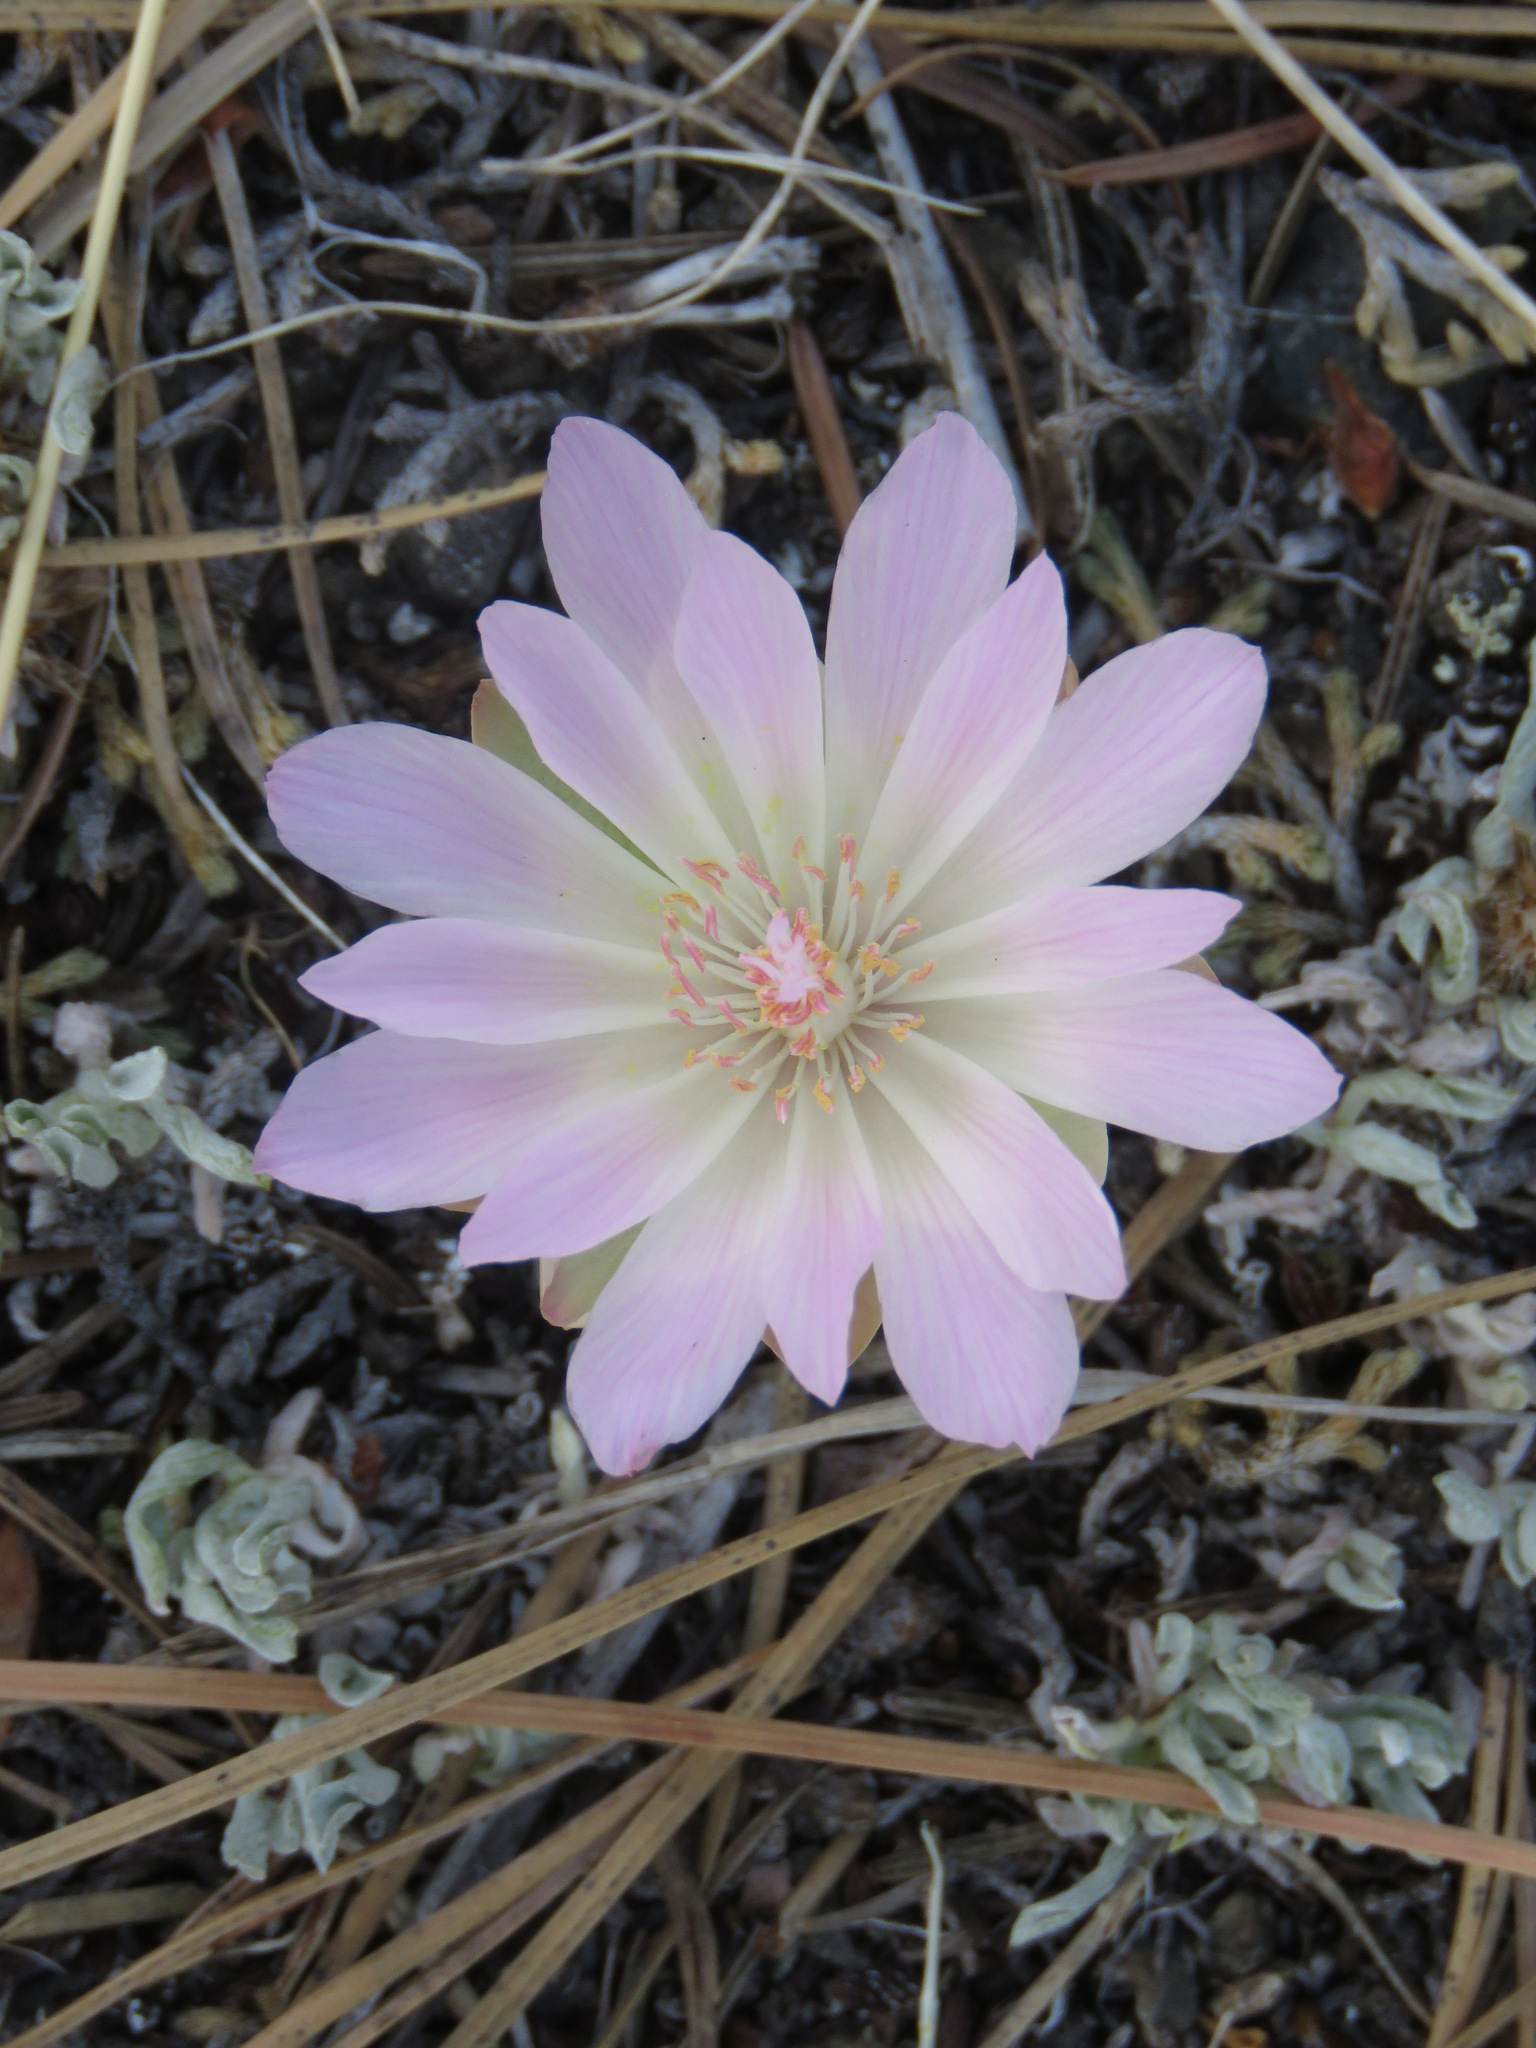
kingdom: Plantae
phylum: Tracheophyta
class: Magnoliopsida
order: Caryophyllales
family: Montiaceae
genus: Lewisia
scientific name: Lewisia rediviva
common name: Bitter-root
